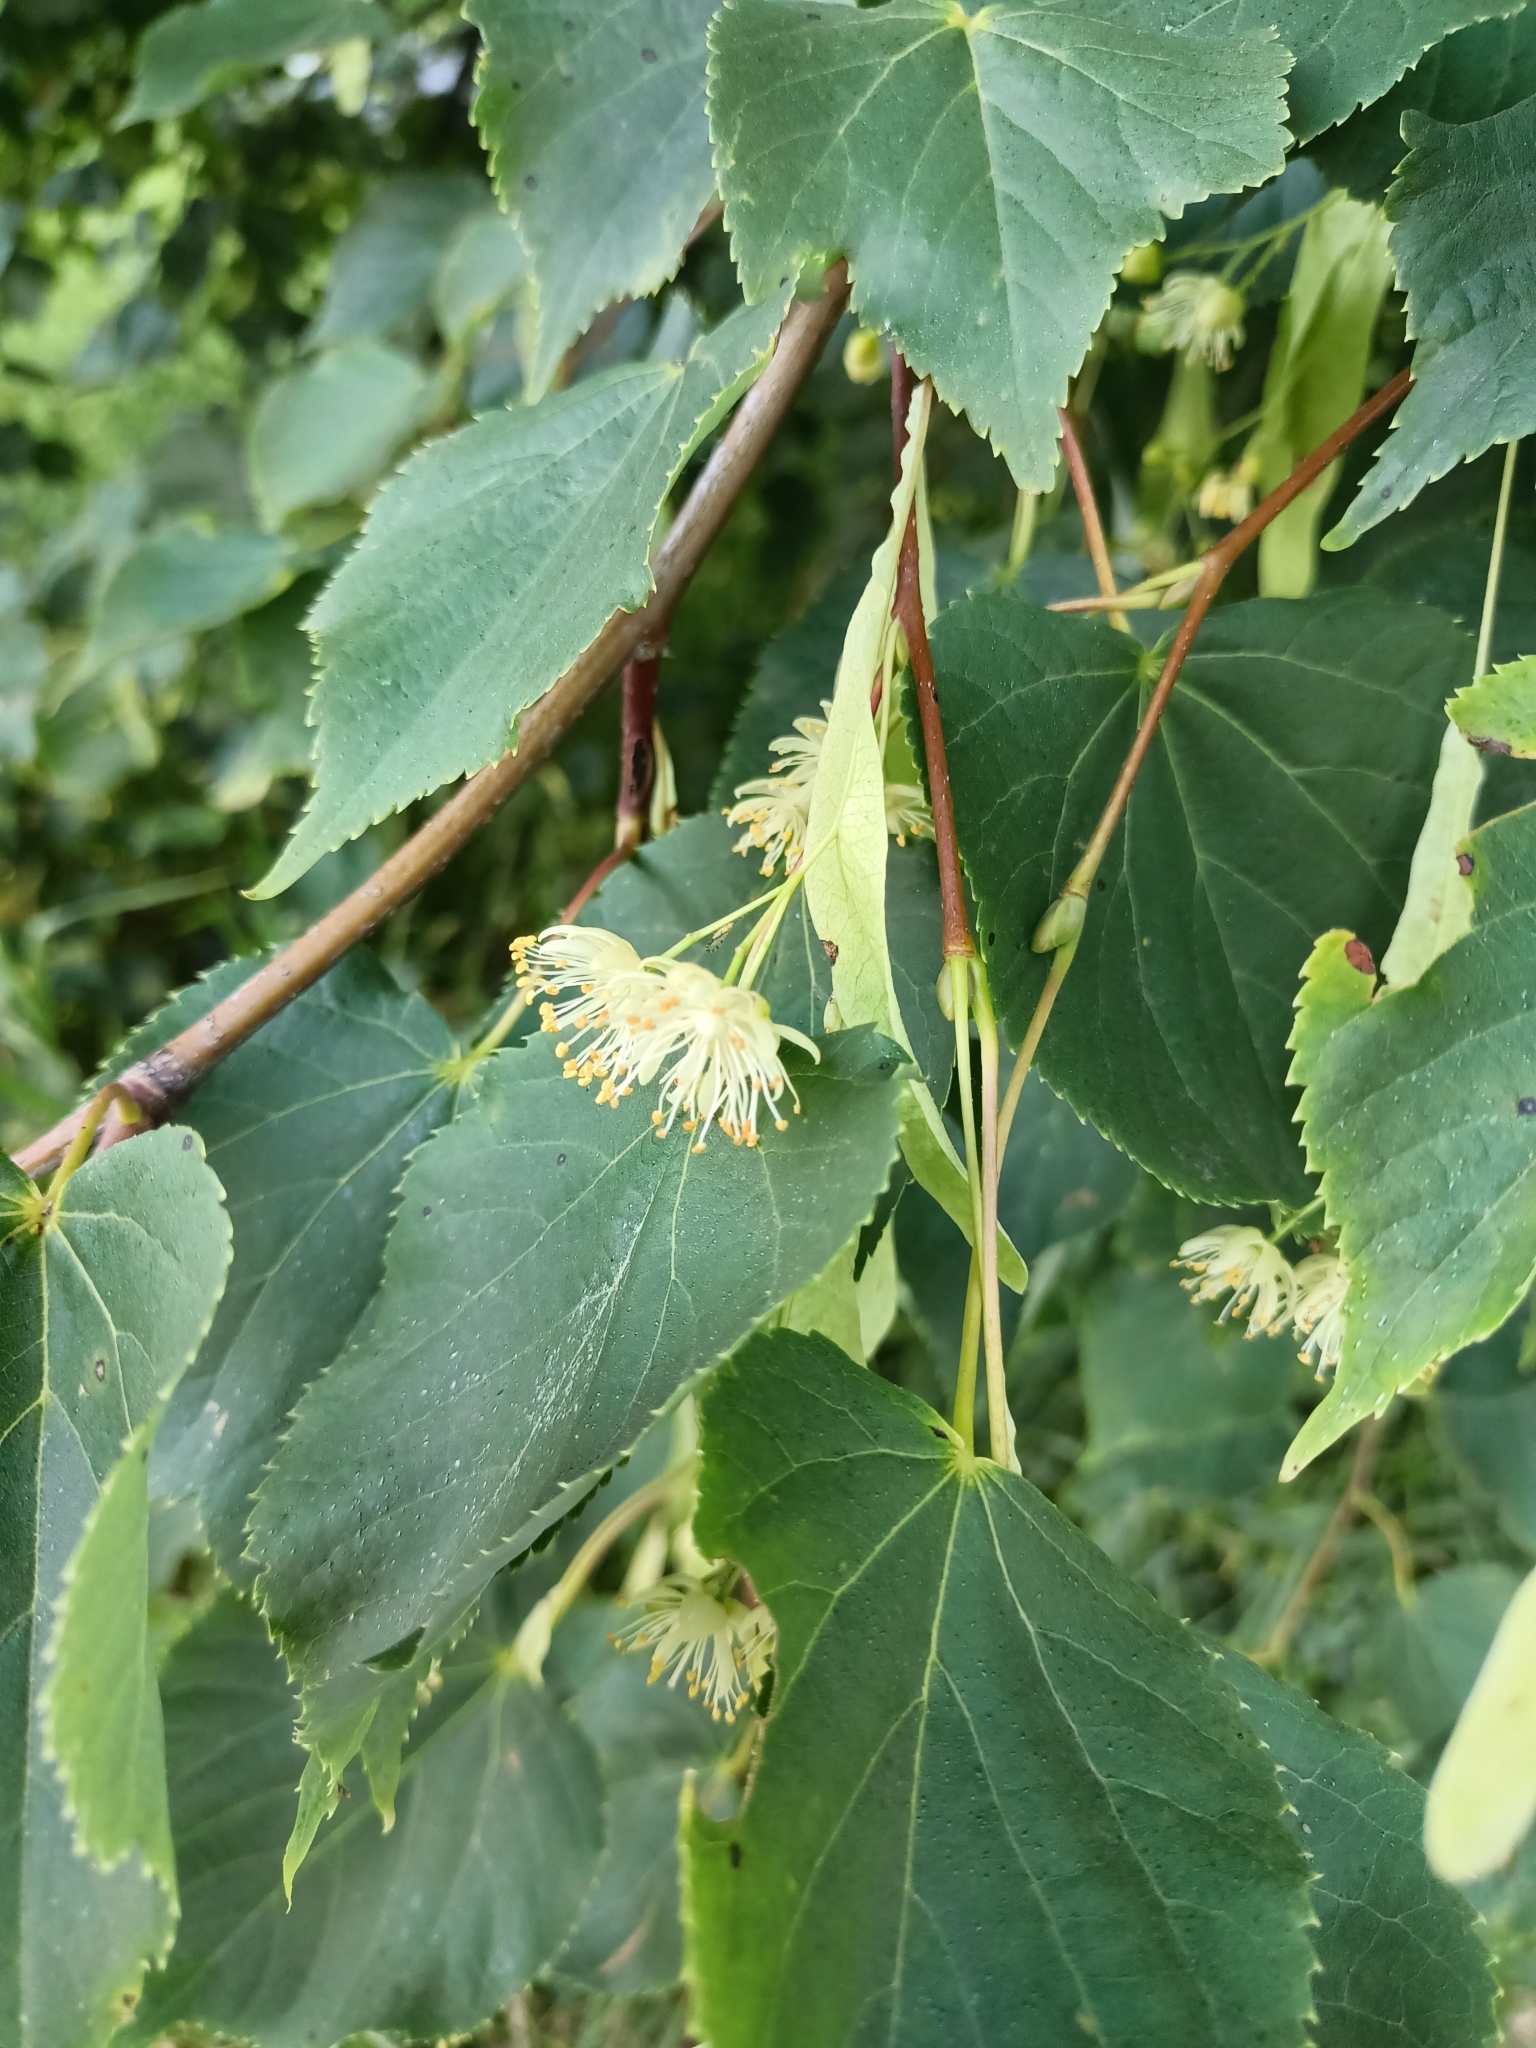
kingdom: Plantae
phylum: Tracheophyta
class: Magnoliopsida
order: Malvales
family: Malvaceae
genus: Tilia
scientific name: Tilia cordata
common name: Small-leaved lime
